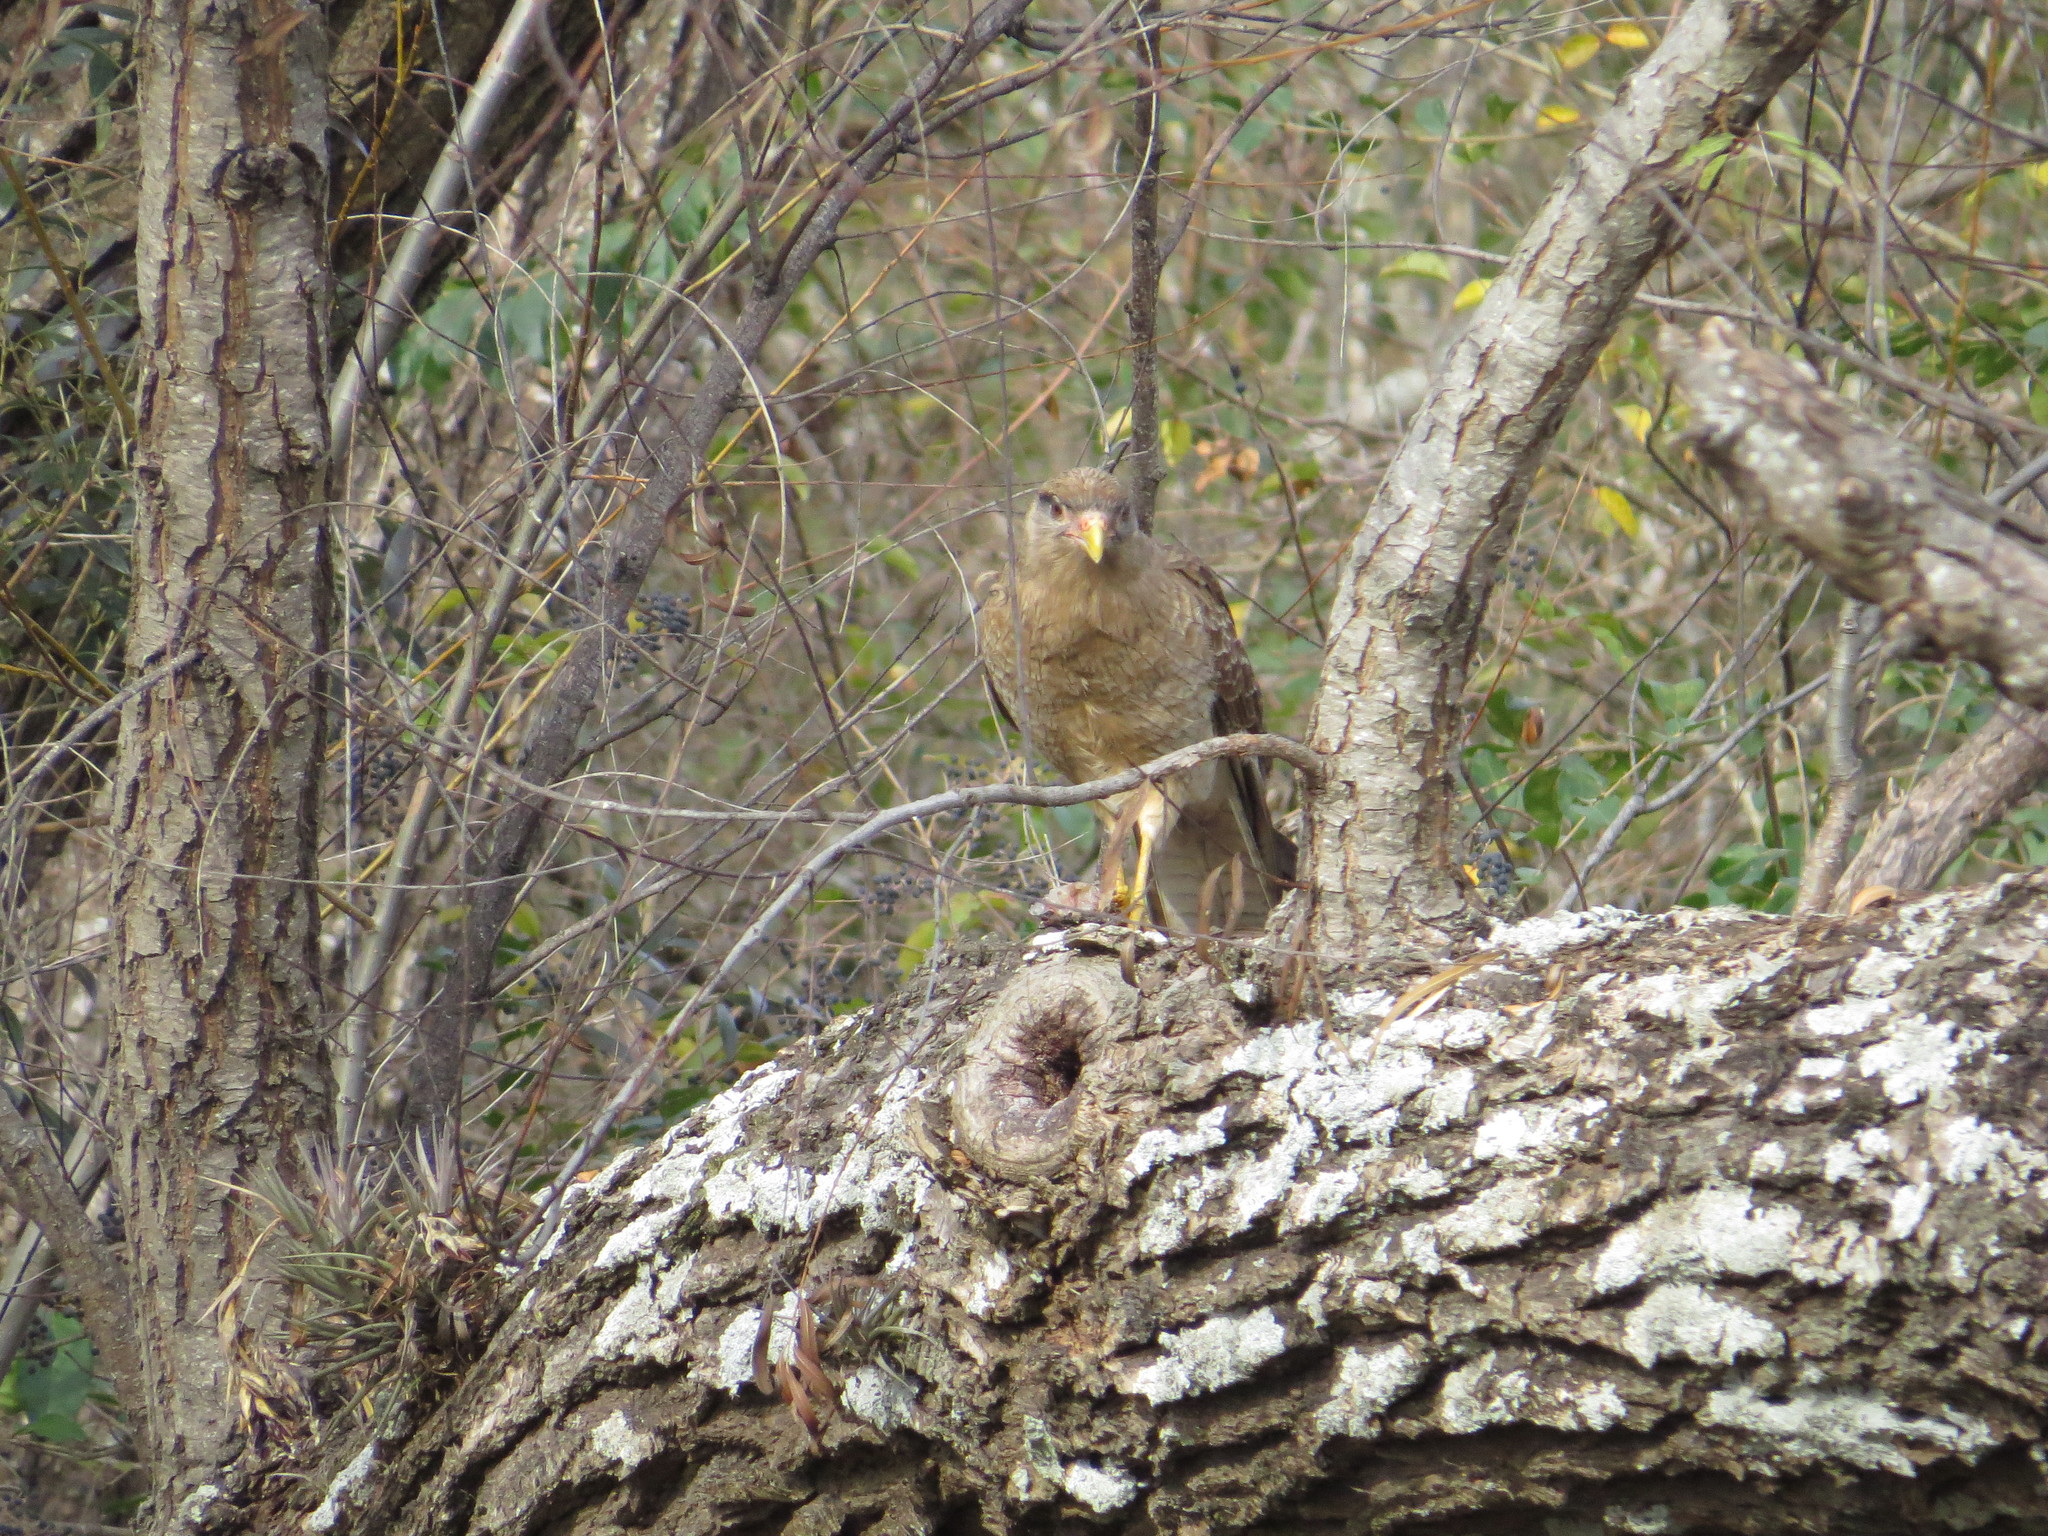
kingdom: Animalia
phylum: Chordata
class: Aves
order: Falconiformes
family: Falconidae
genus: Daptrius
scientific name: Daptrius
